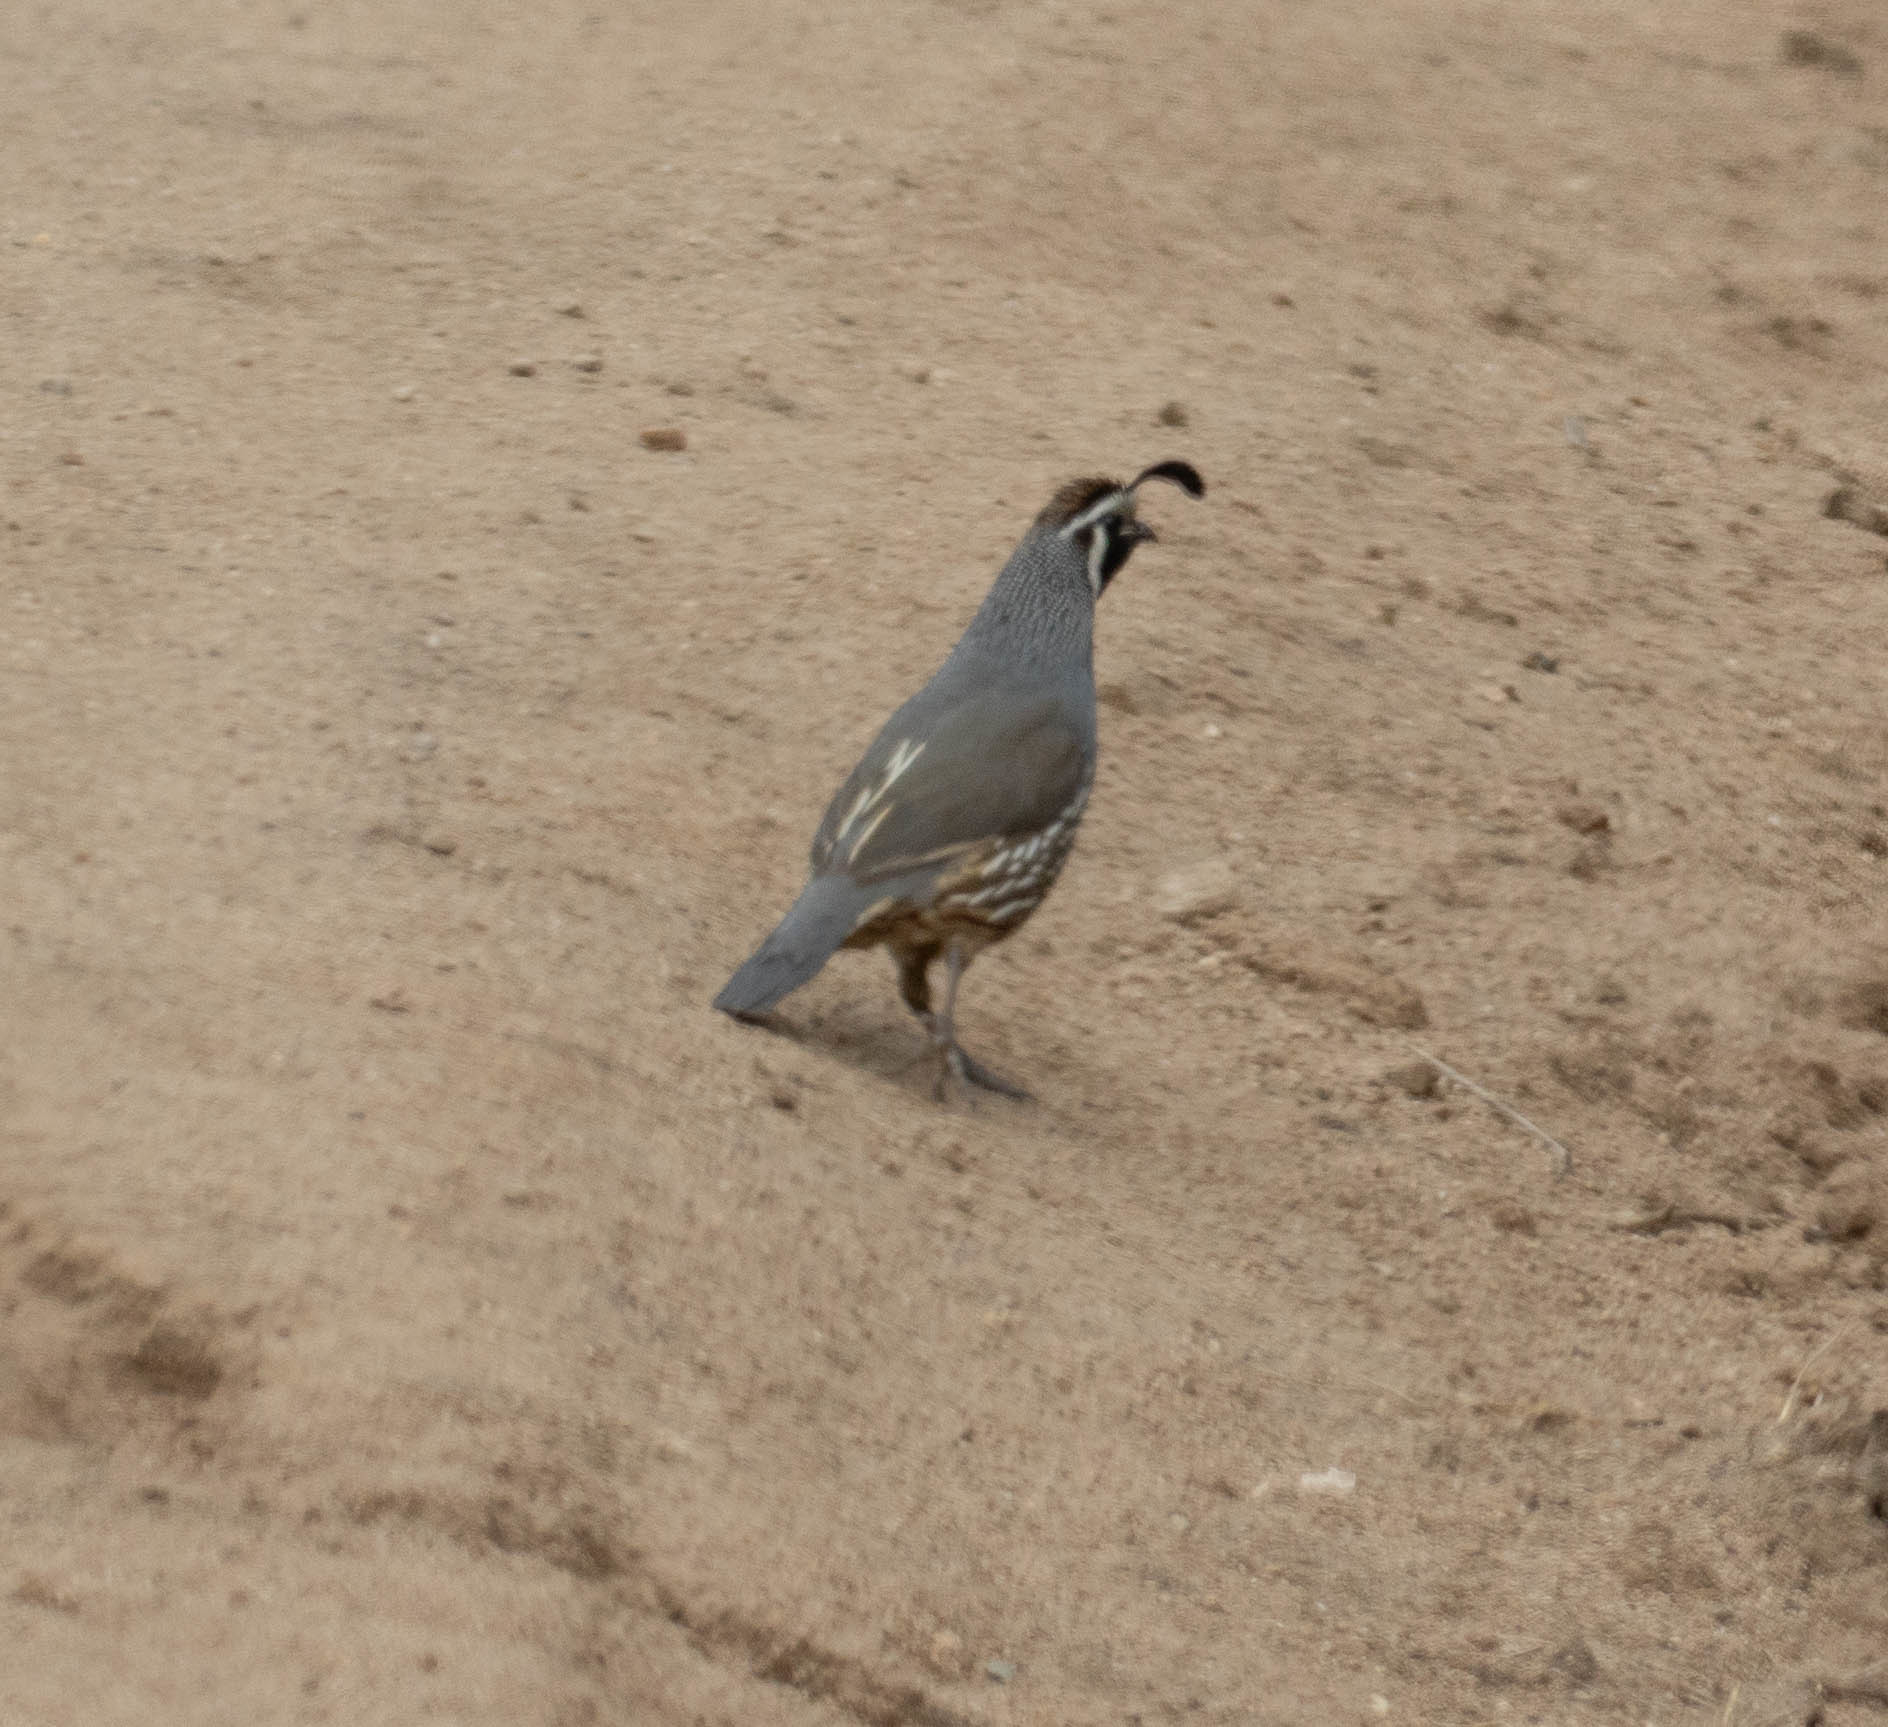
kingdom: Animalia
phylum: Chordata
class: Aves
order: Galliformes
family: Odontophoridae
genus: Callipepla
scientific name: Callipepla californica
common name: California quail
